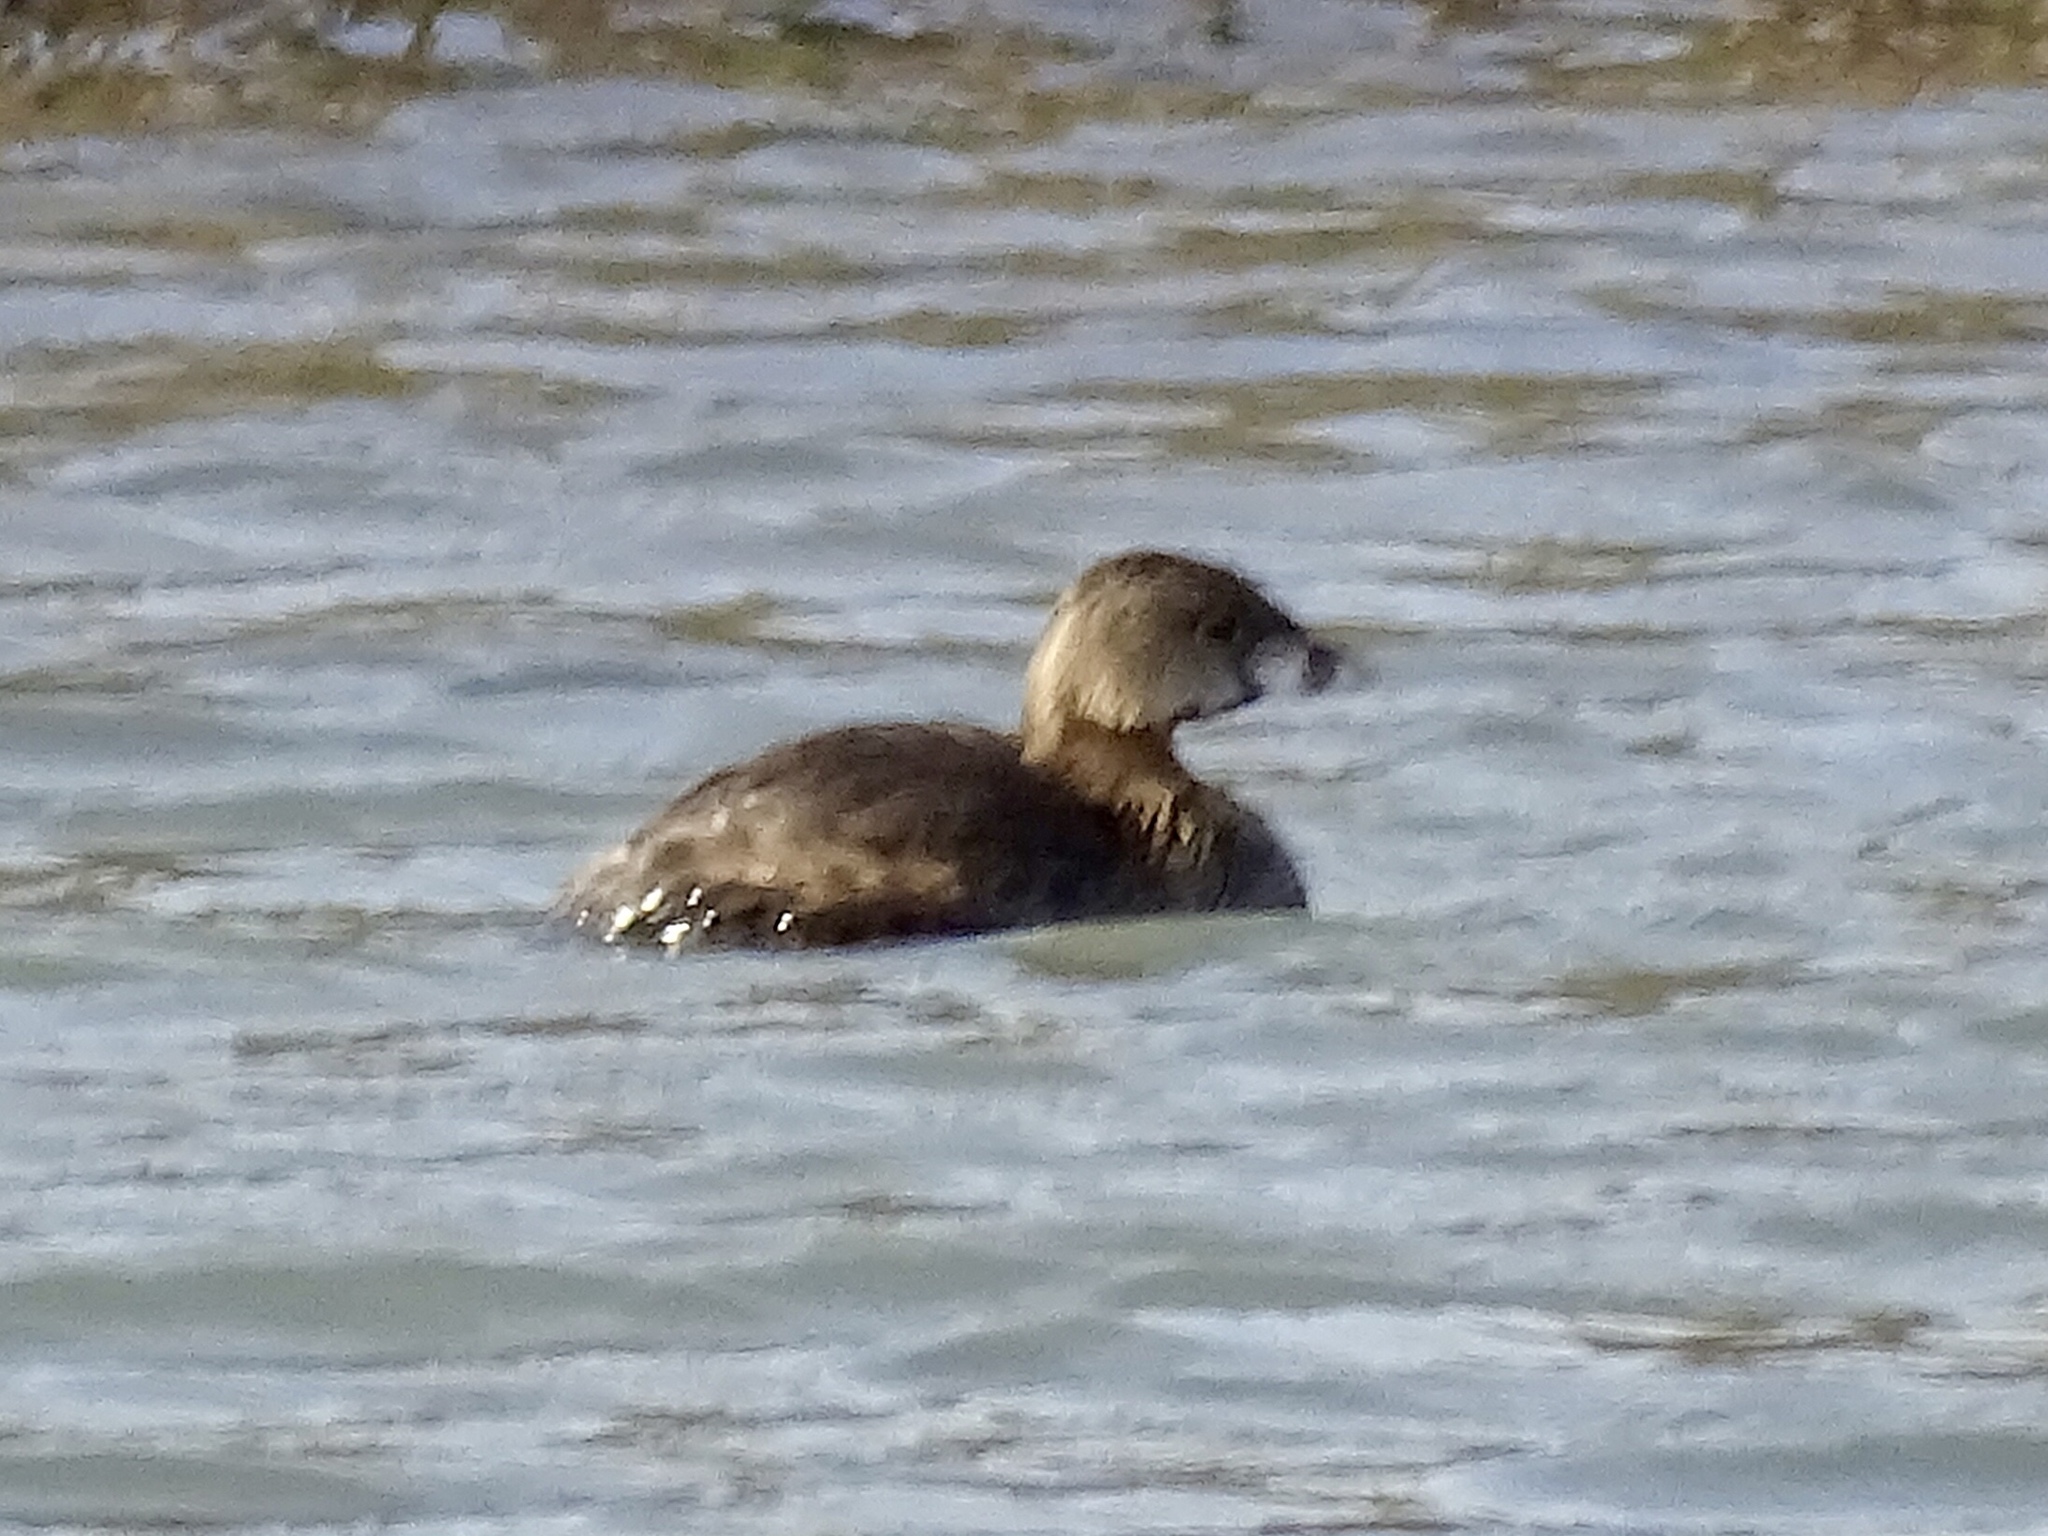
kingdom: Animalia
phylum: Chordata
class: Aves
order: Podicipediformes
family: Podicipedidae
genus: Podilymbus
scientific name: Podilymbus podiceps
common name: Pied-billed grebe
